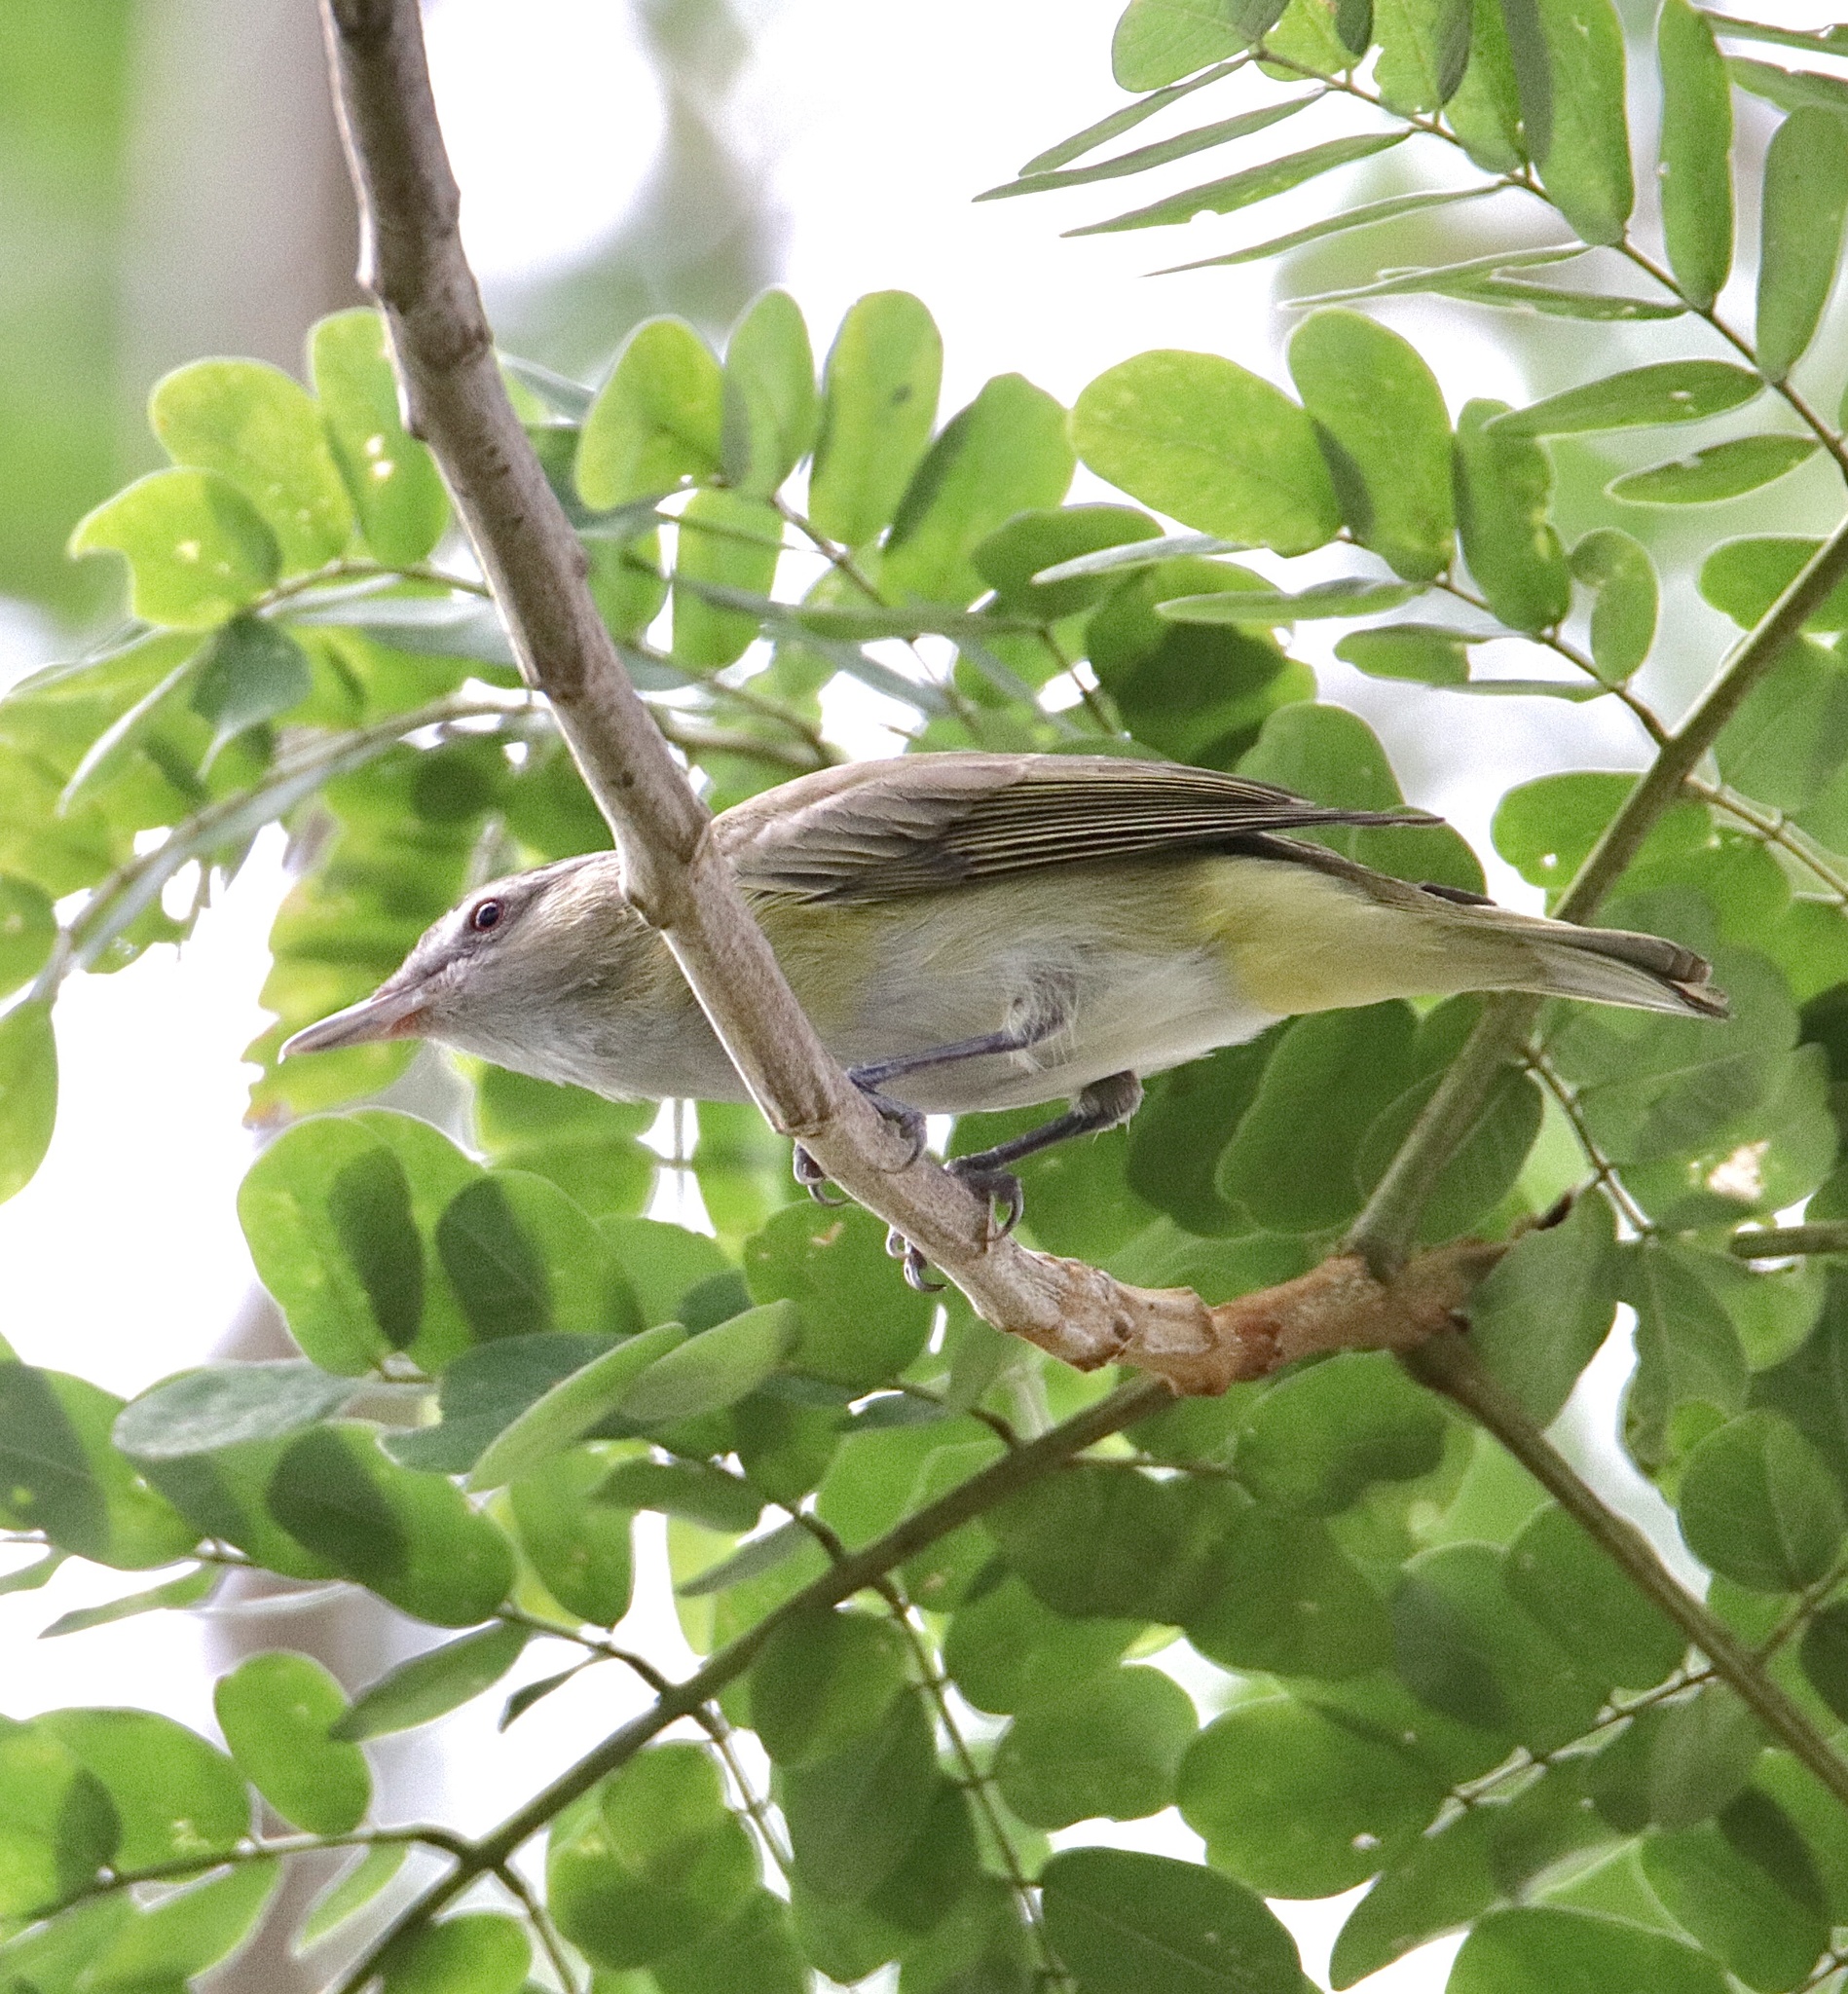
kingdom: Animalia
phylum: Chordata
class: Aves
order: Passeriformes
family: Vireonidae
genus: Vireo
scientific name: Vireo flavoviridis
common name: Yellow-green vireo
